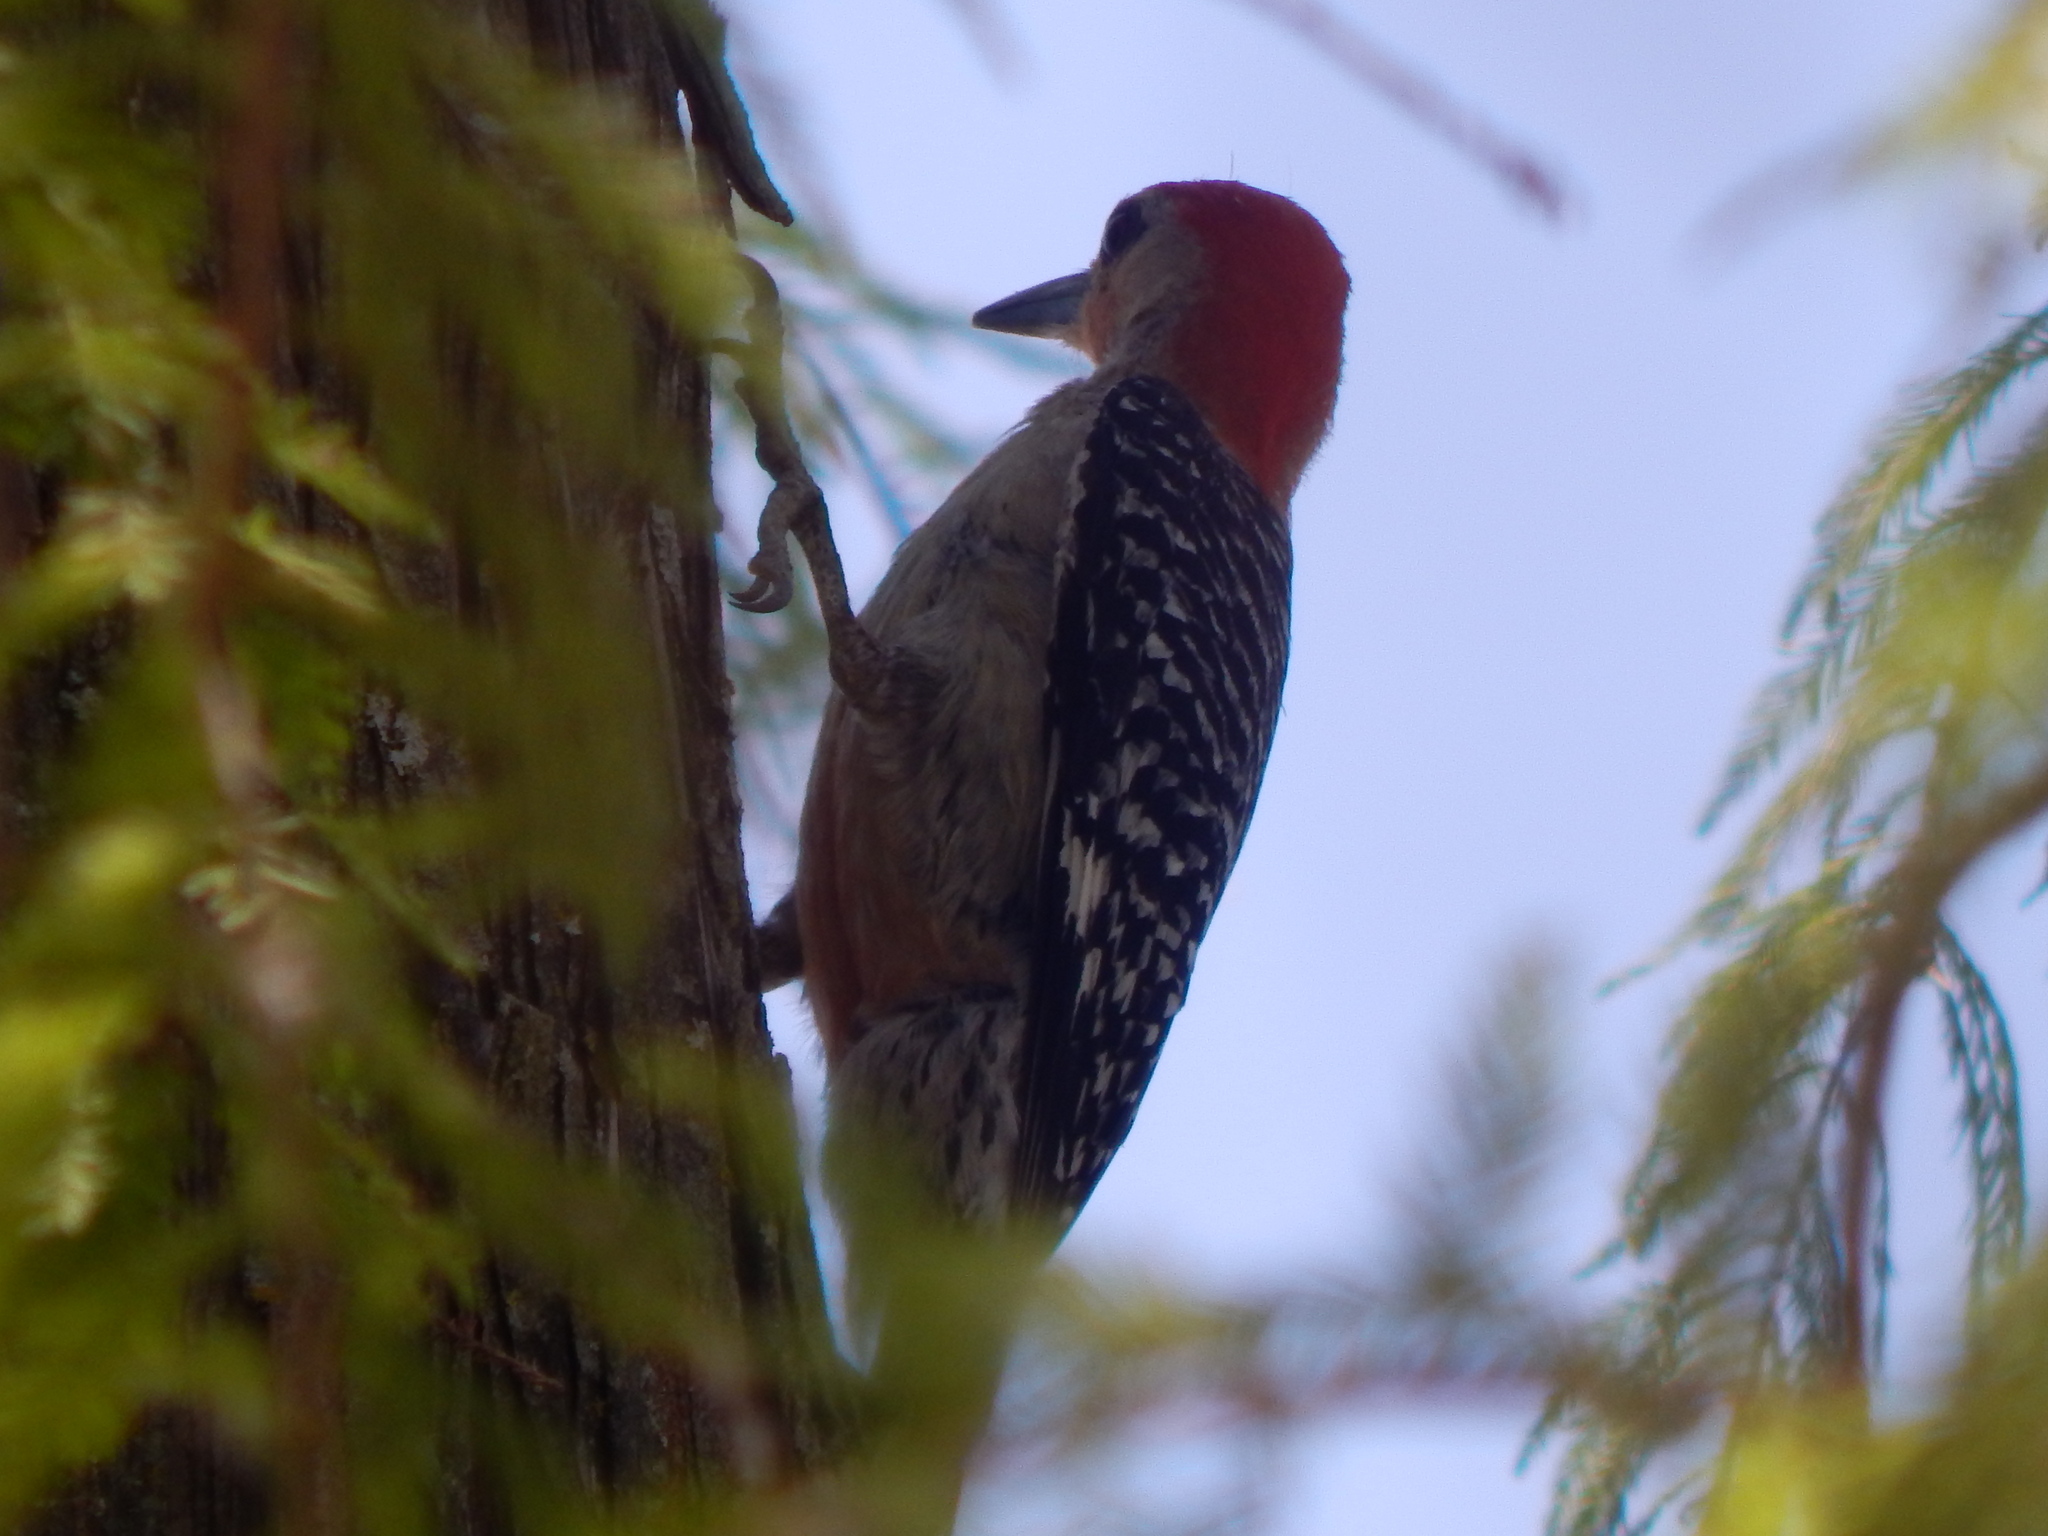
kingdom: Animalia
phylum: Chordata
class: Aves
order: Piciformes
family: Picidae
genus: Melanerpes
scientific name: Melanerpes carolinus
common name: Red-bellied woodpecker
